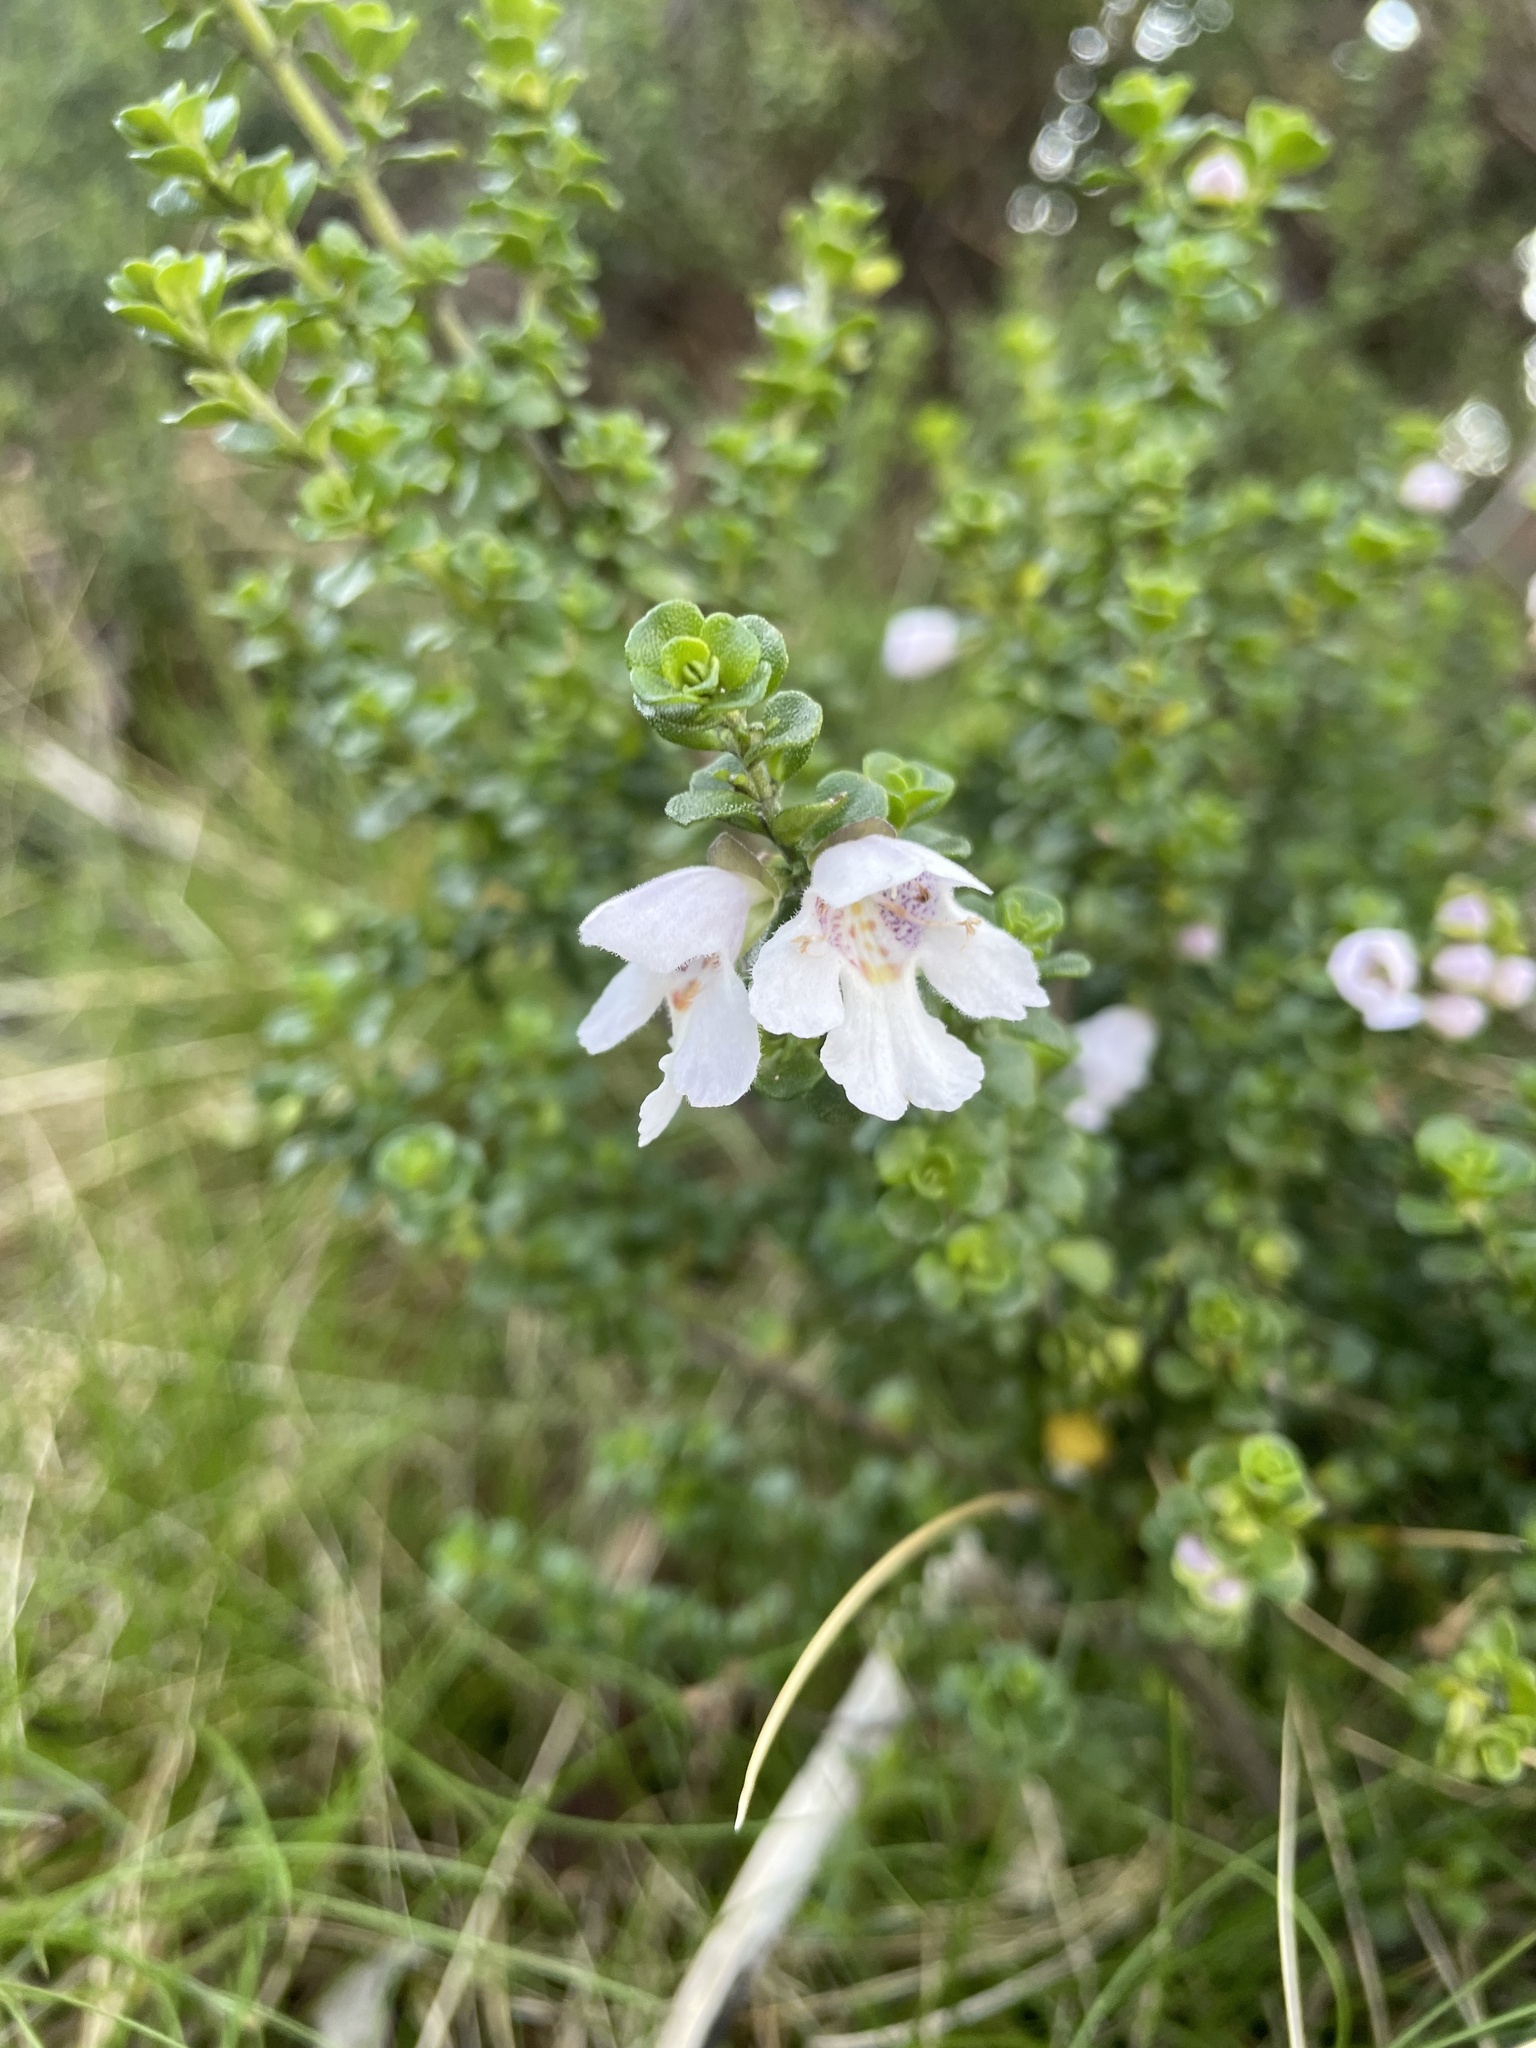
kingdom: Plantae
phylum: Tracheophyta
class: Magnoliopsida
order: Lamiales
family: Lamiaceae
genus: Prostanthera
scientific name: Prostanthera cuneata
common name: Alpine mintbush
